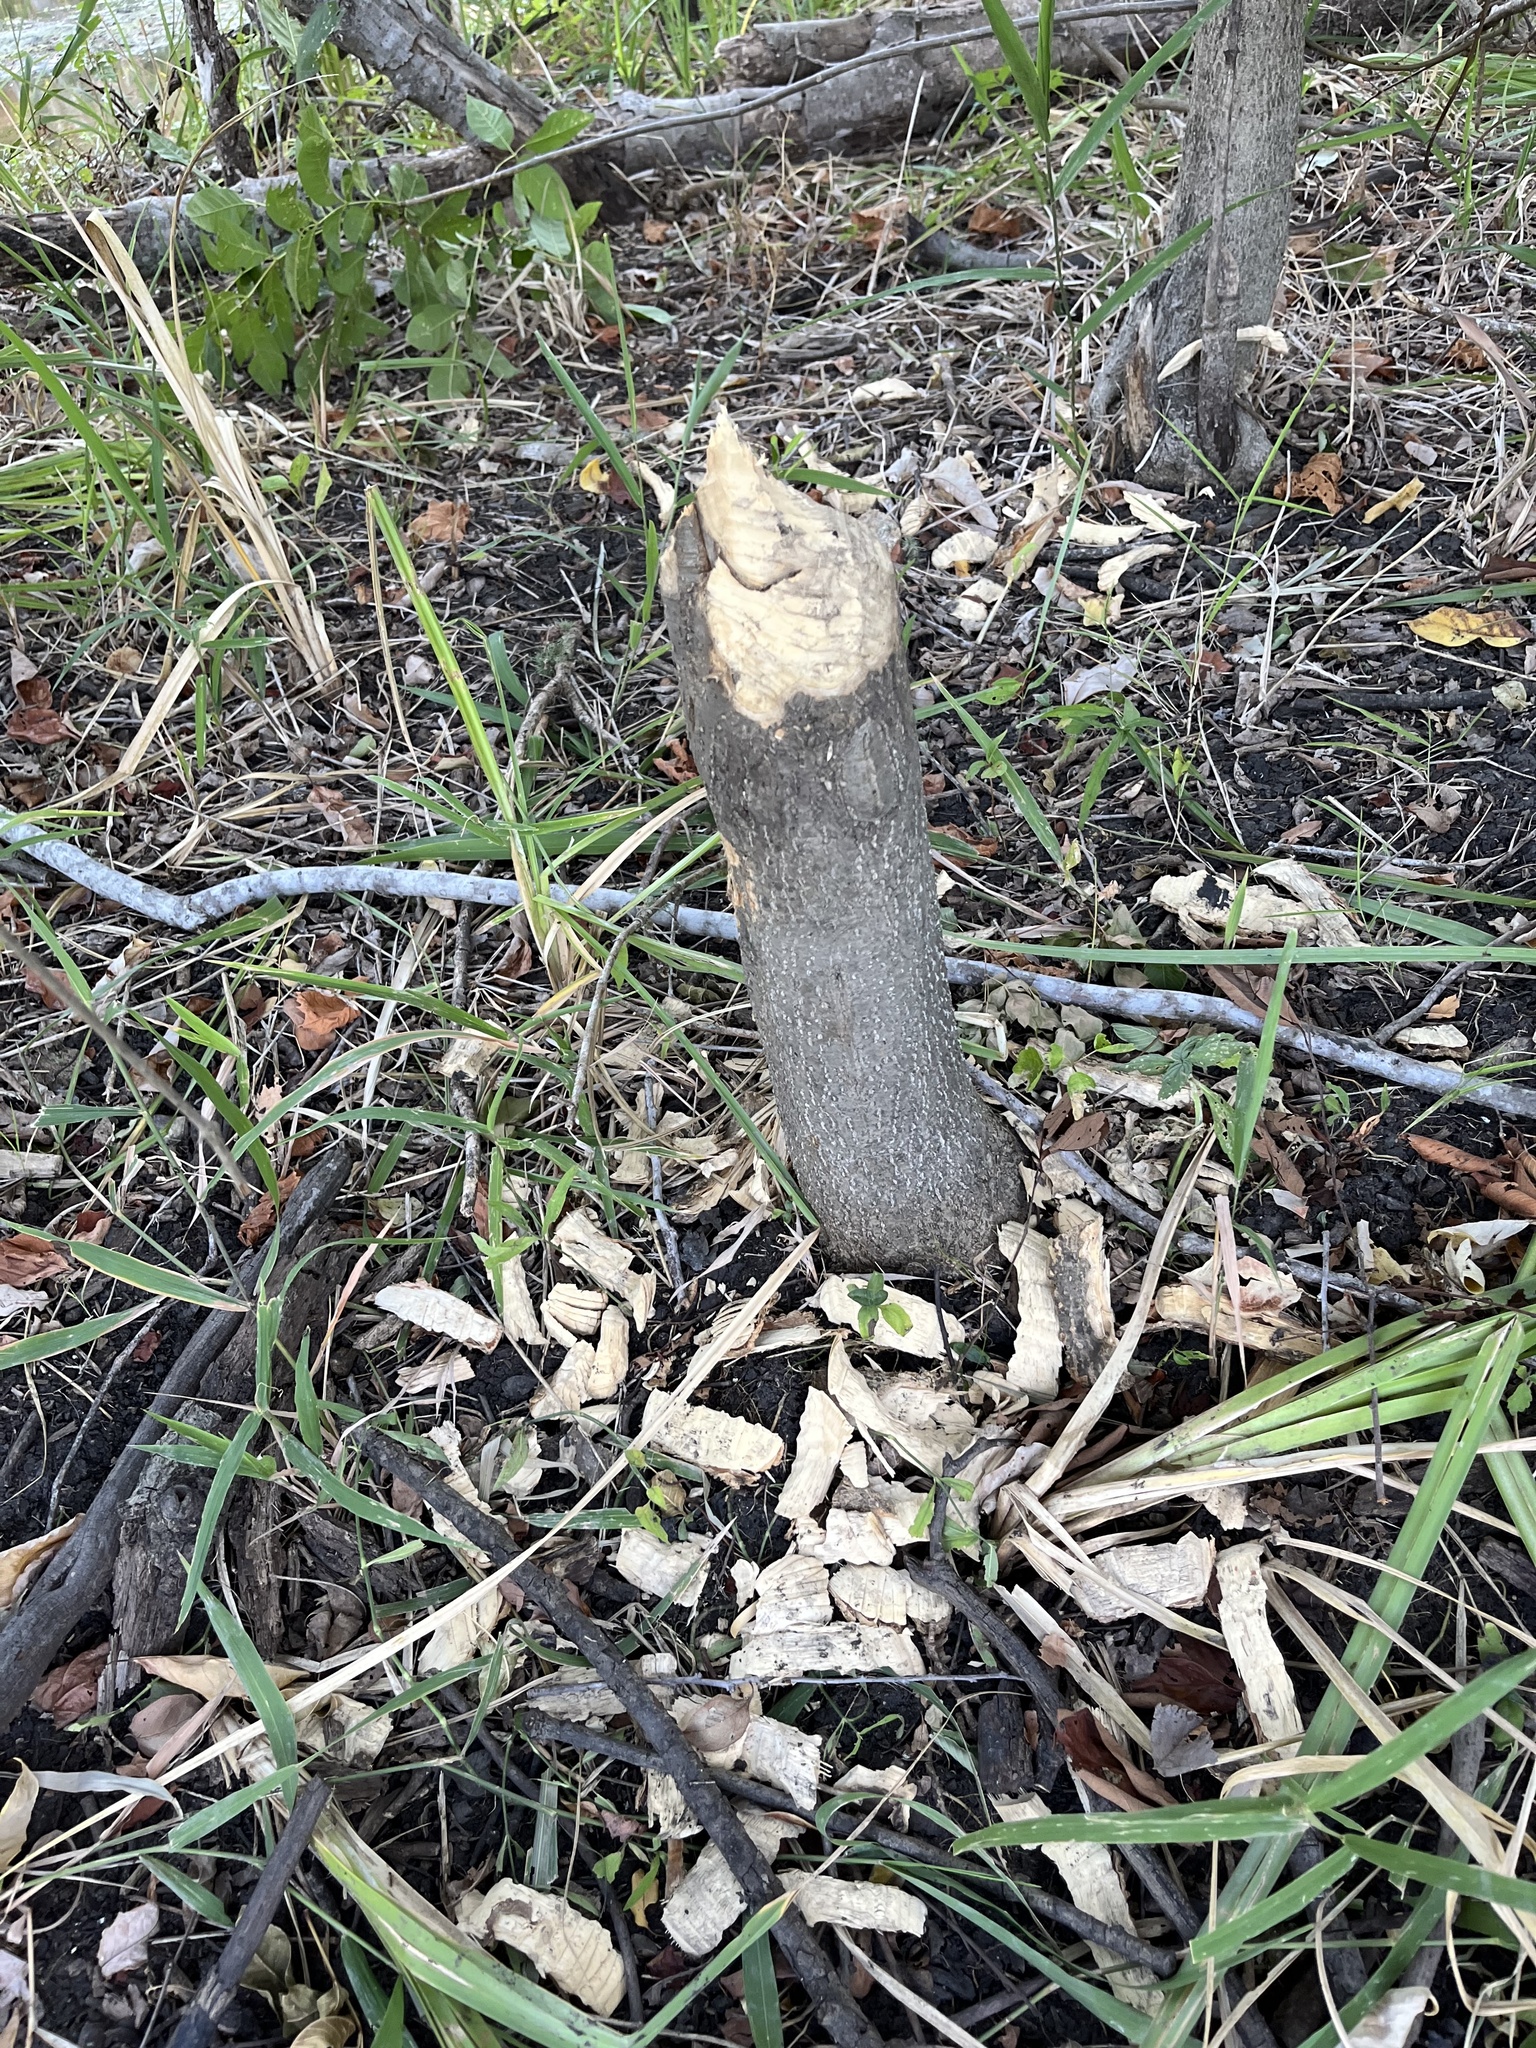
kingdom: Animalia
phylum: Chordata
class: Mammalia
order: Rodentia
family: Castoridae
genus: Castor
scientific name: Castor canadensis
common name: American beaver
